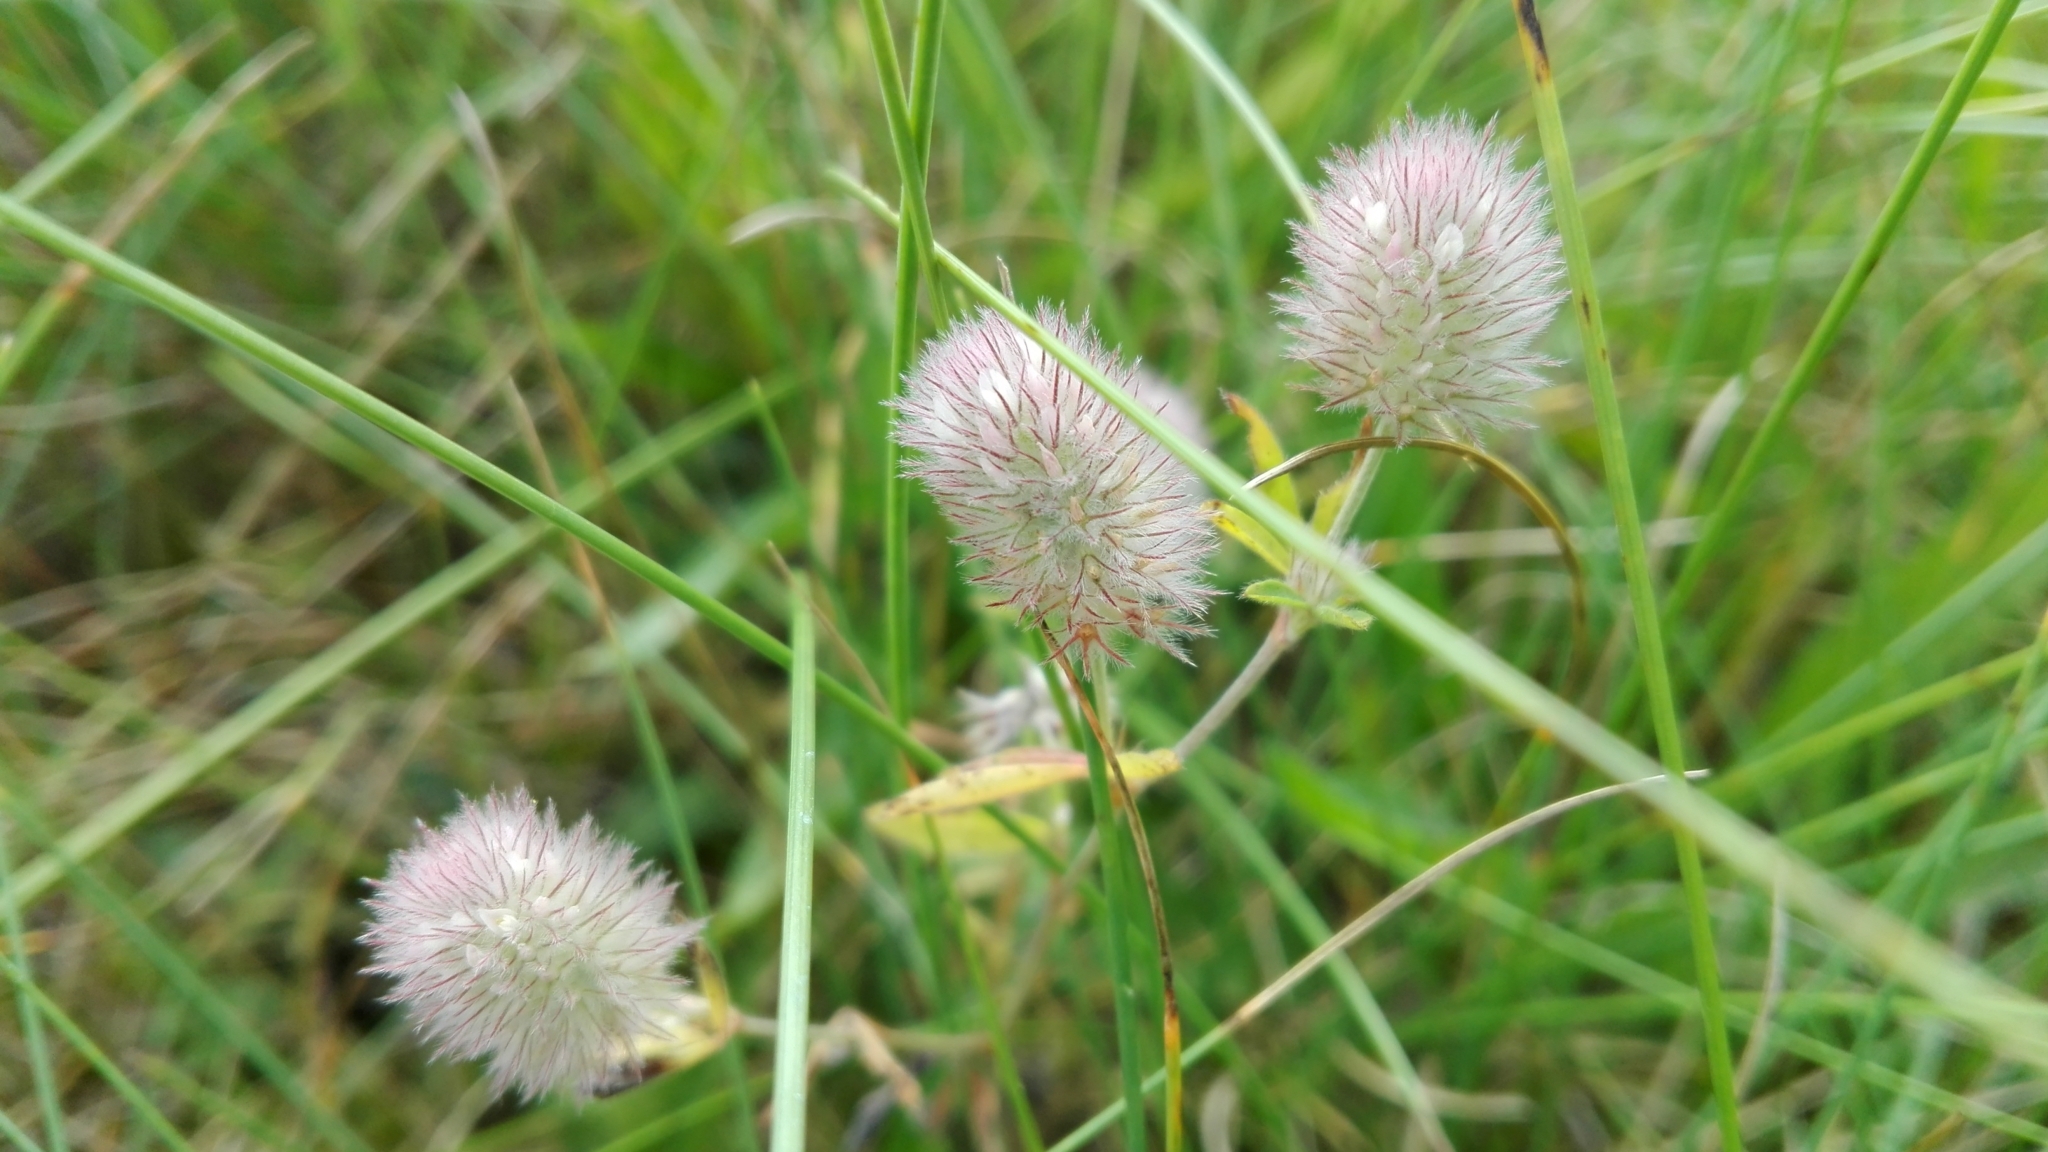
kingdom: Plantae
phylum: Tracheophyta
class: Magnoliopsida
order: Fabales
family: Fabaceae
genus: Trifolium
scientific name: Trifolium arvense
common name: Hare's-foot clover
